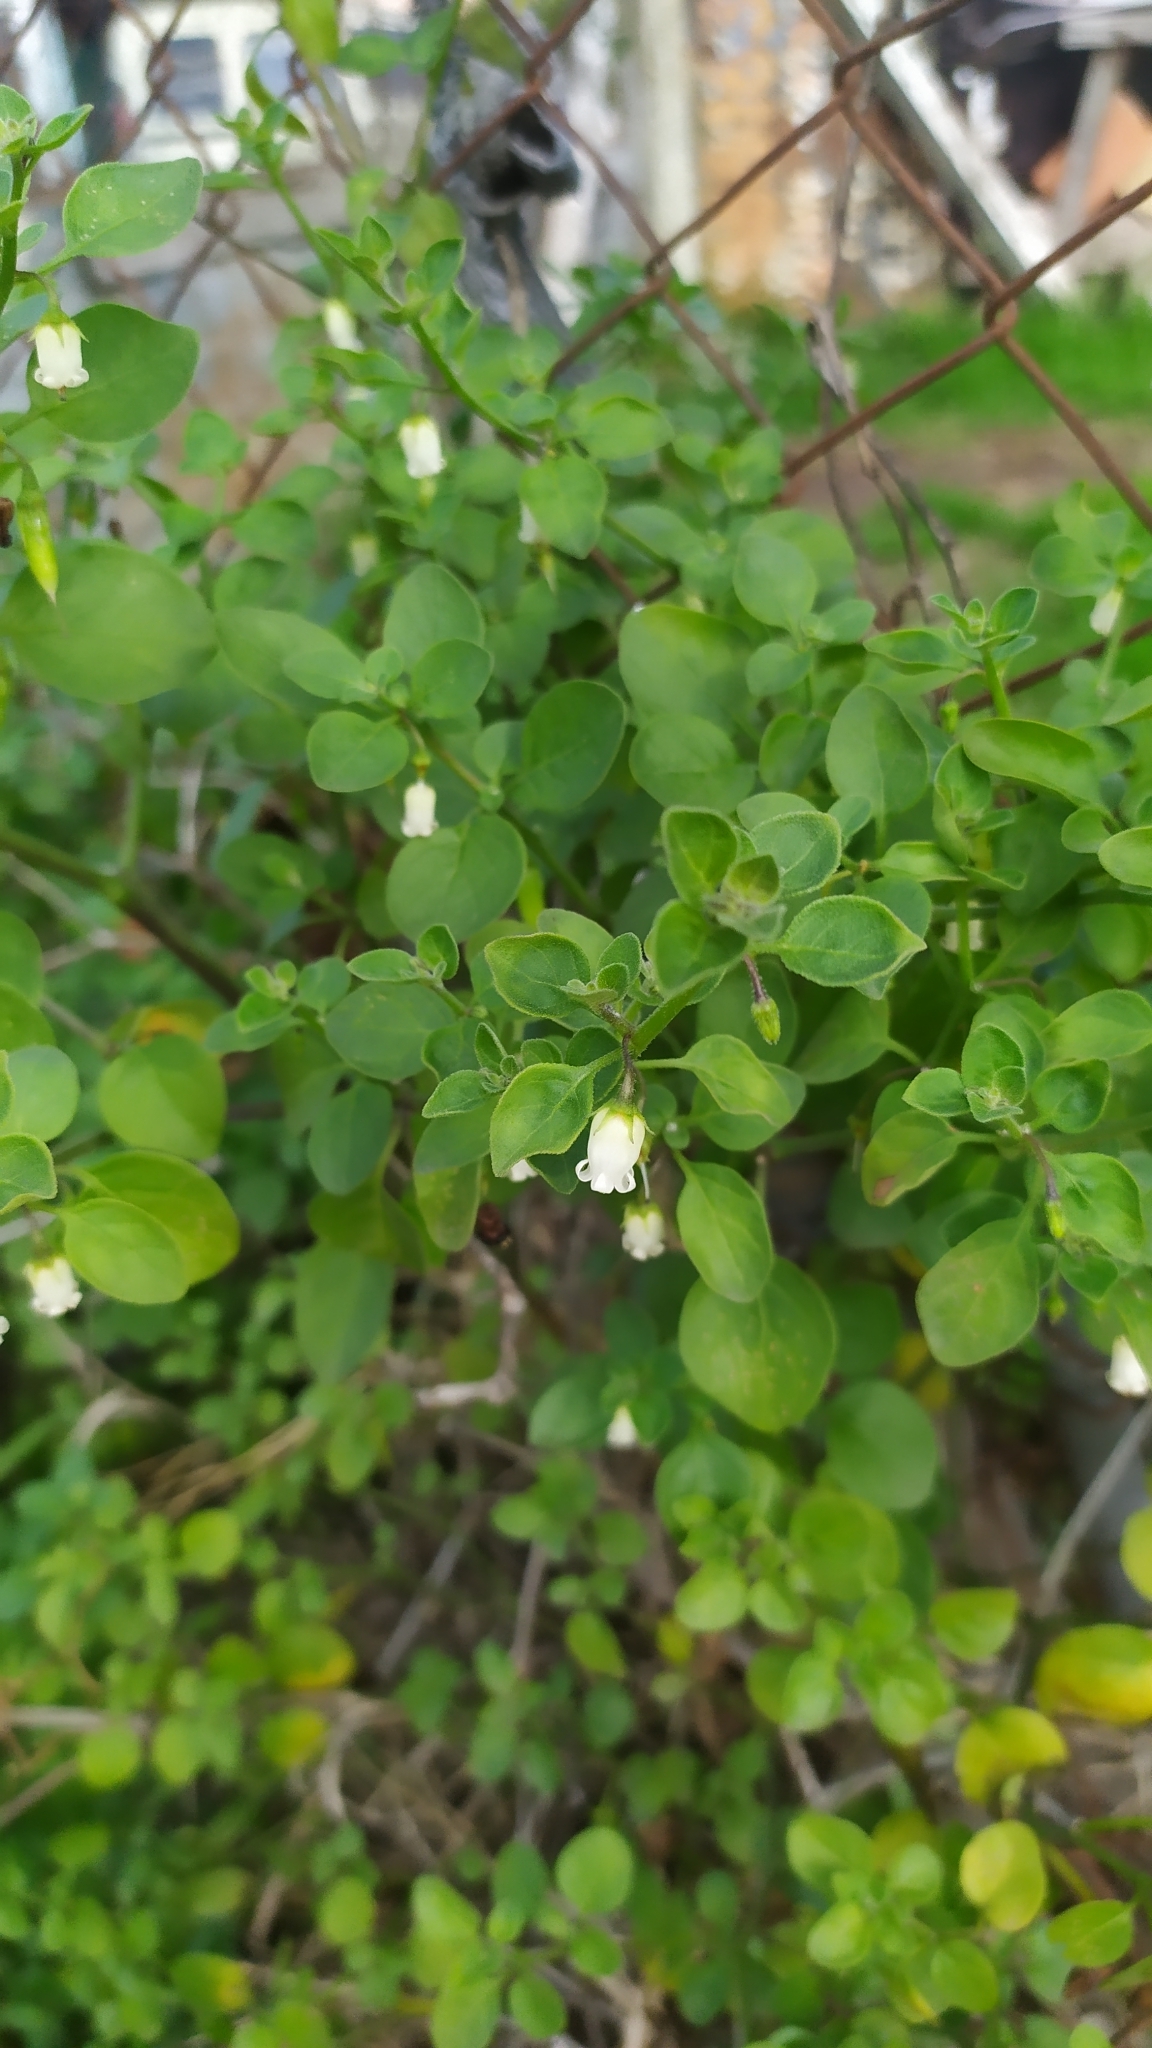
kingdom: Plantae
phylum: Tracheophyta
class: Magnoliopsida
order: Solanales
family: Solanaceae
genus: Salpichroa
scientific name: Salpichroa origanifolia
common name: Lily-of-the-valley-vine
